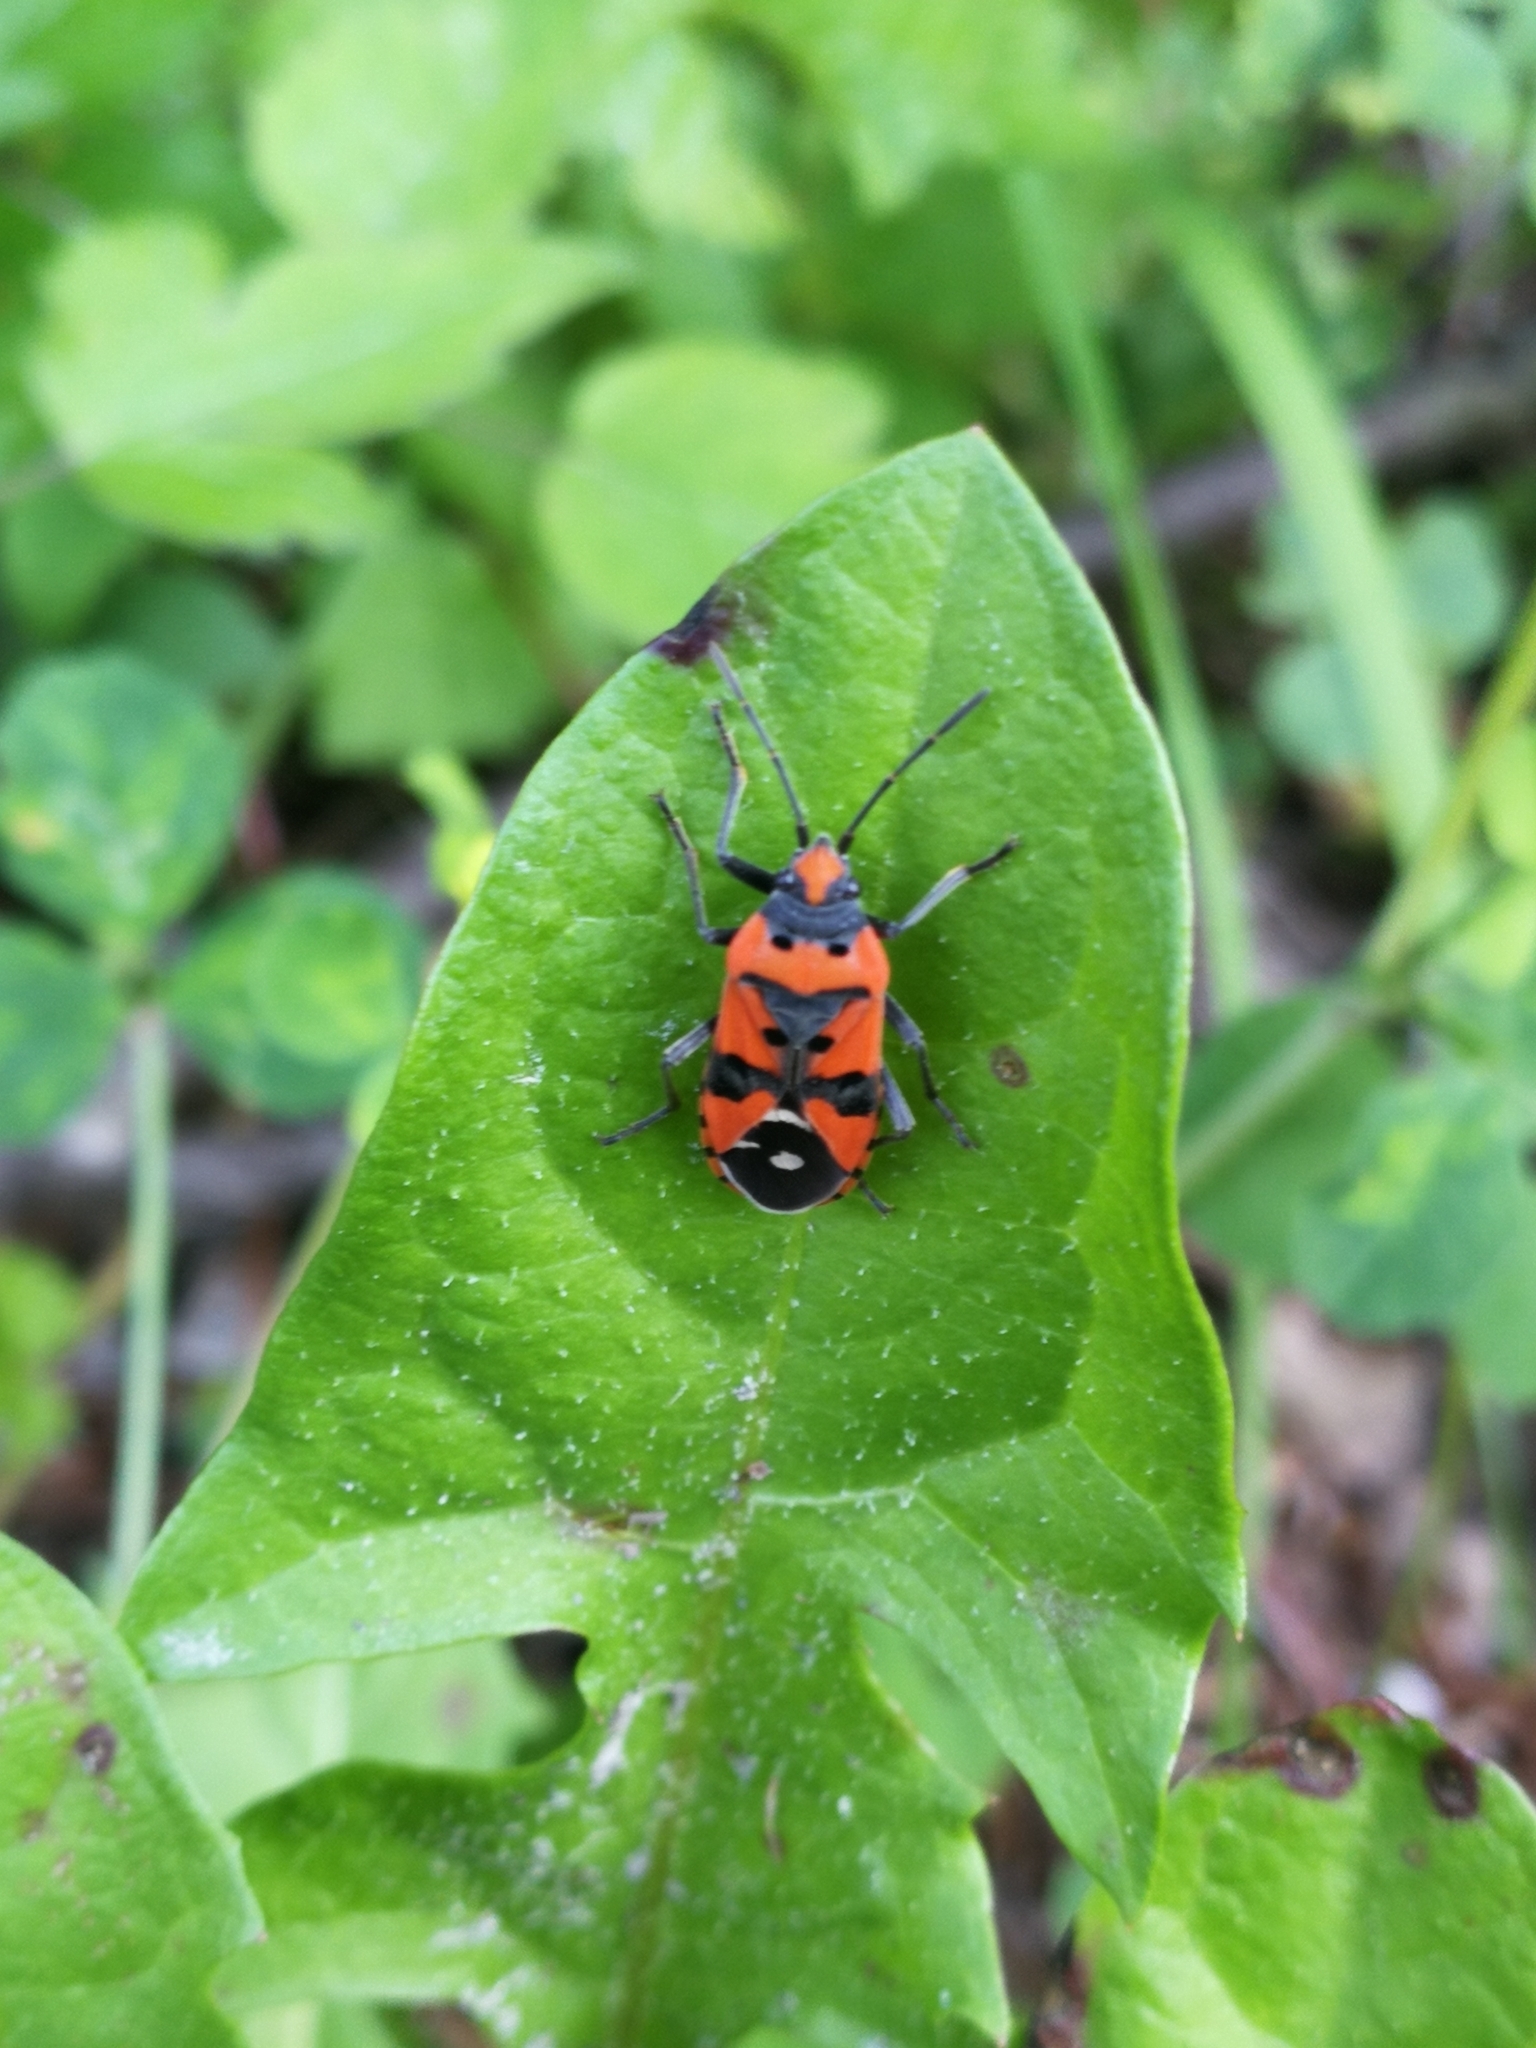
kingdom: Animalia
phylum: Arthropoda
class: Insecta
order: Hemiptera
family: Lygaeidae
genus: Lygaeus
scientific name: Lygaeus equestris
